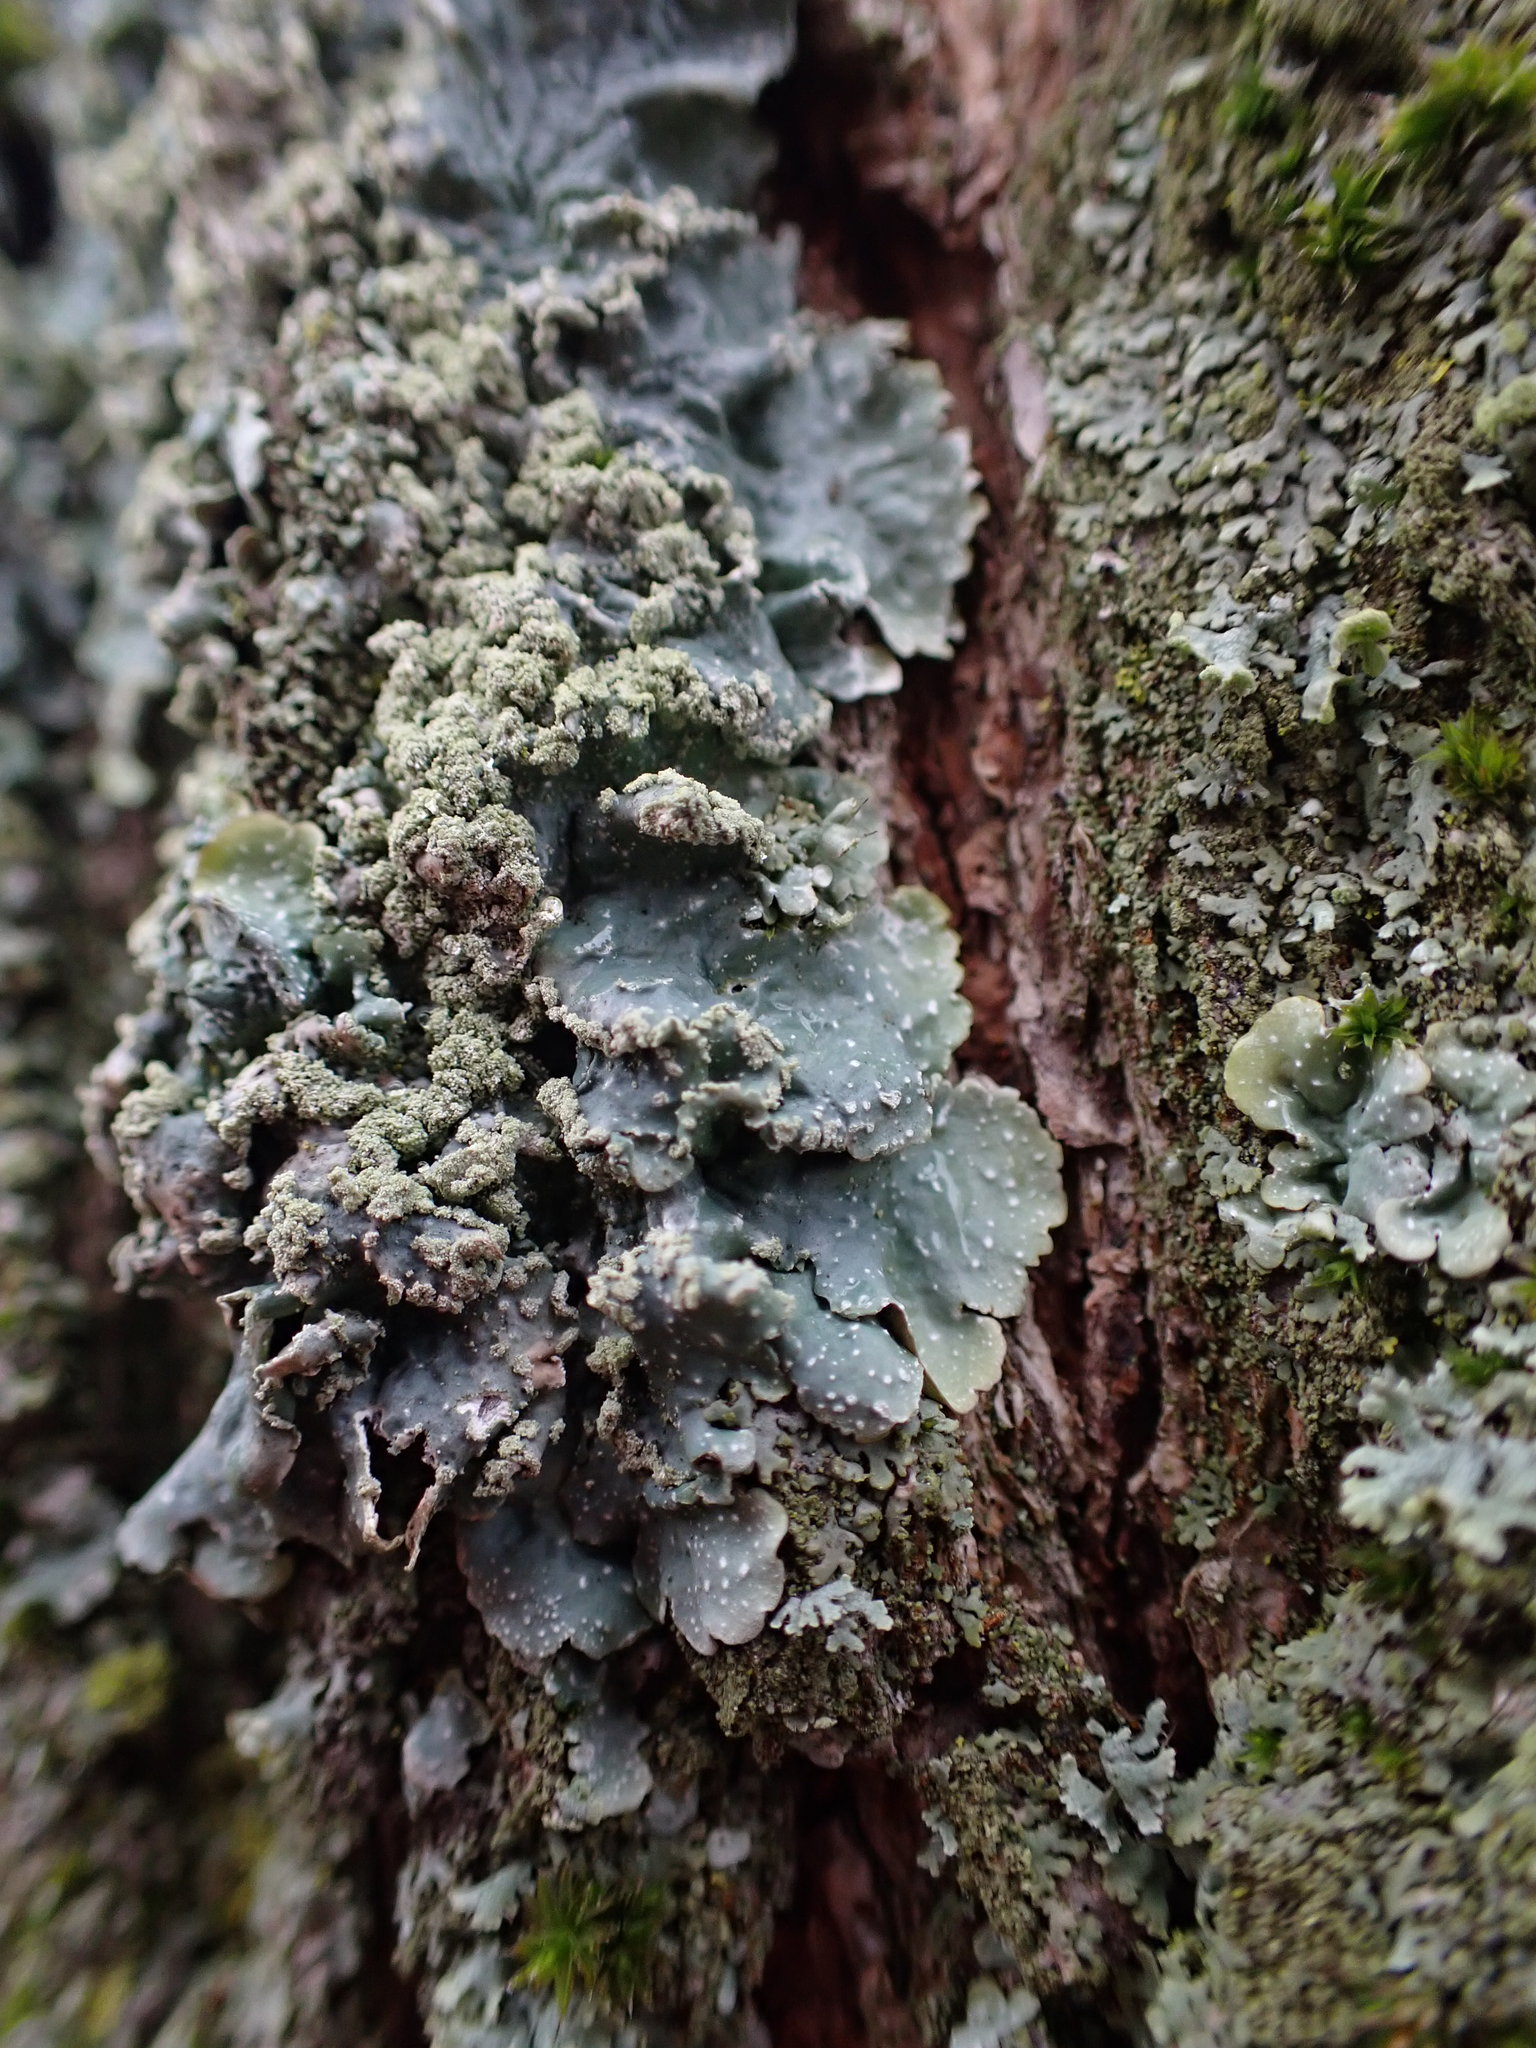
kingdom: Fungi
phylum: Ascomycota
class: Lecanoromycetes
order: Lecanorales
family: Parmeliaceae
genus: Punctelia
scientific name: Punctelia
